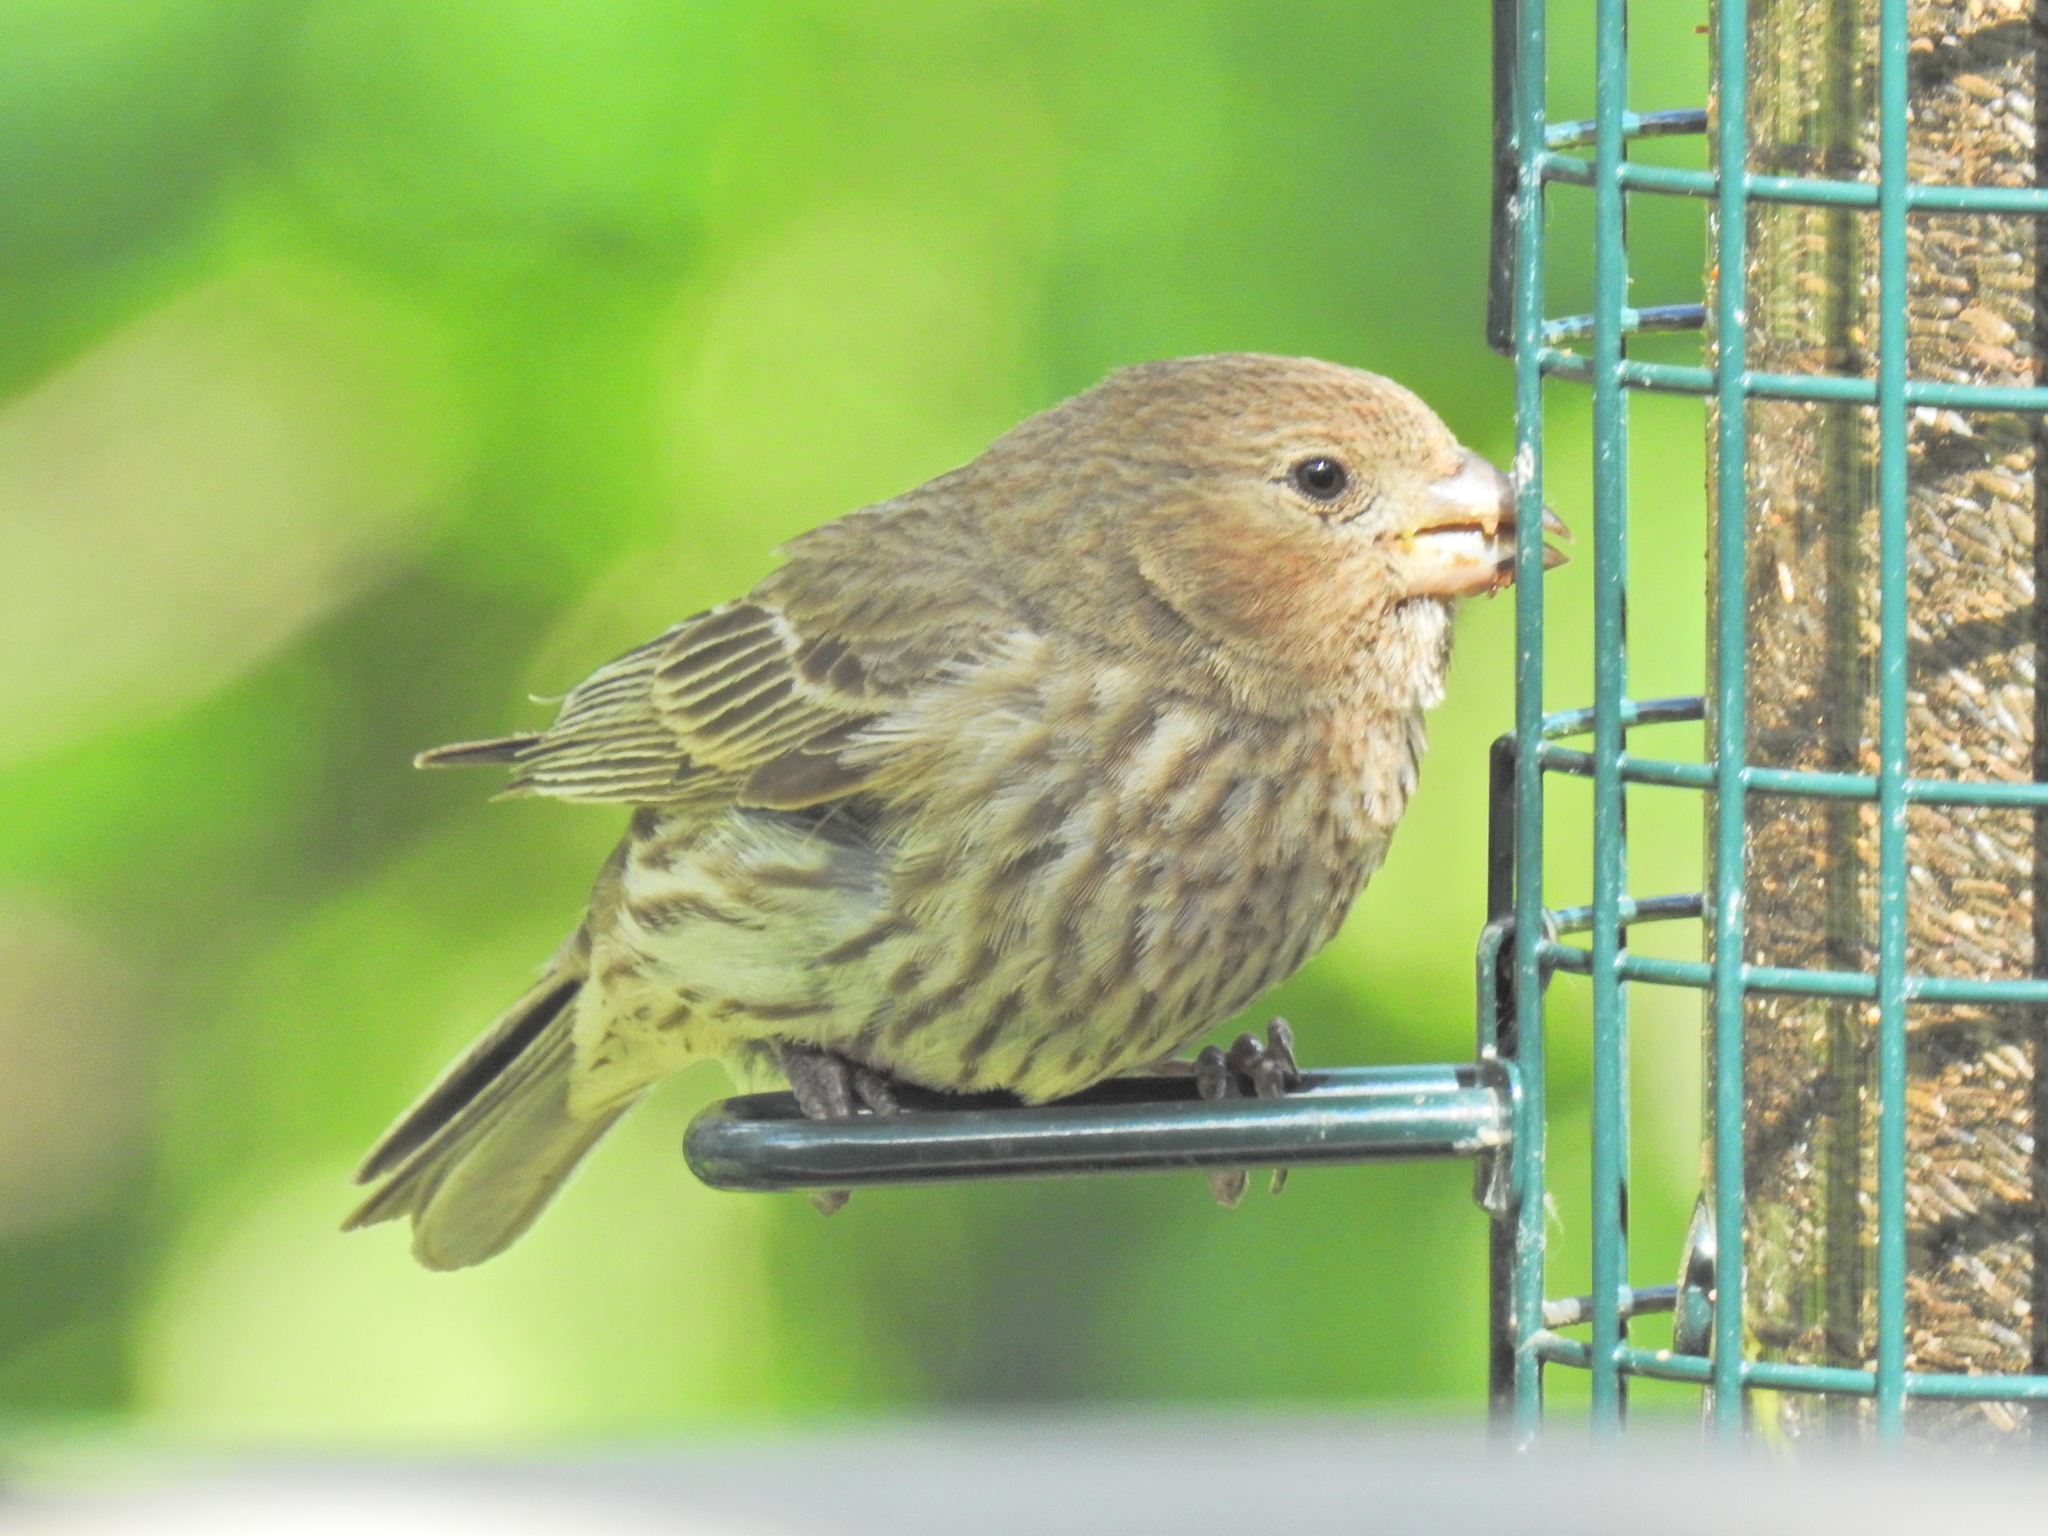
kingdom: Animalia
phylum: Chordata
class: Aves
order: Passeriformes
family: Fringillidae
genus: Haemorhous
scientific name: Haemorhous mexicanus
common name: House finch
